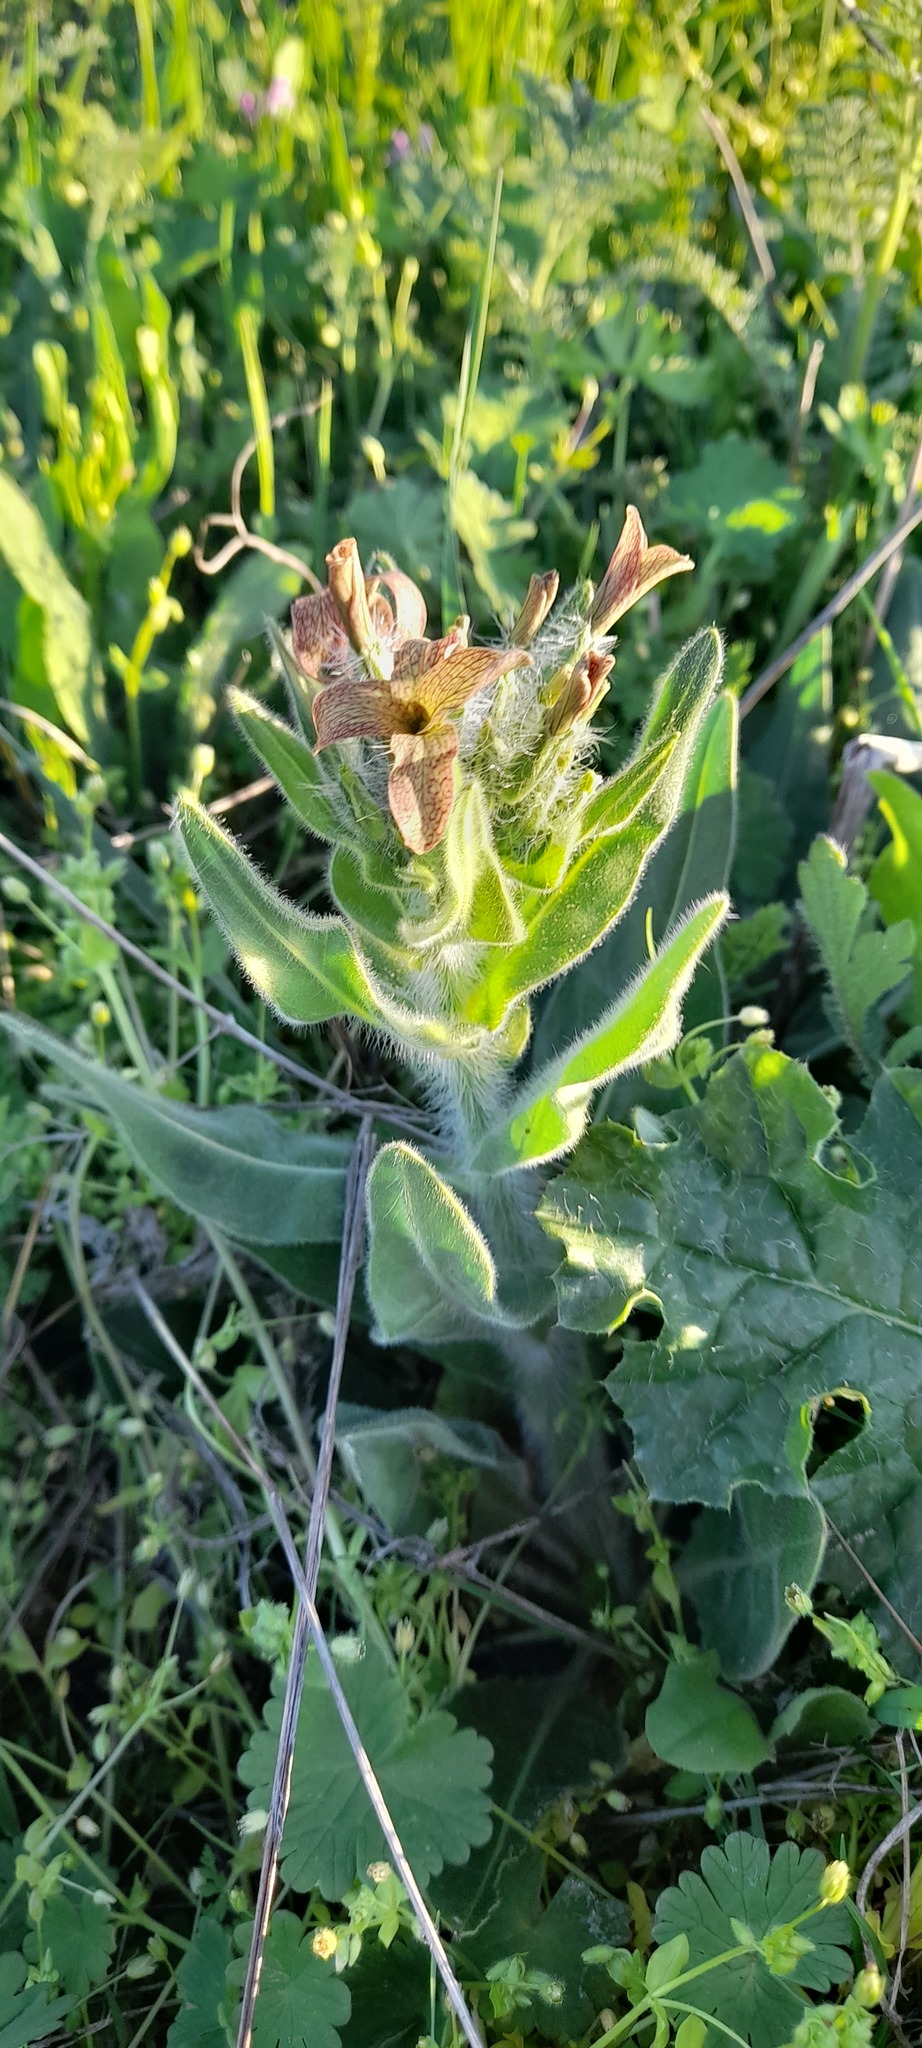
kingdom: Plantae
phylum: Tracheophyta
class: Magnoliopsida
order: Brassicales
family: Brassicaceae
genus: Hesperis
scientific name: Hesperis tristis
